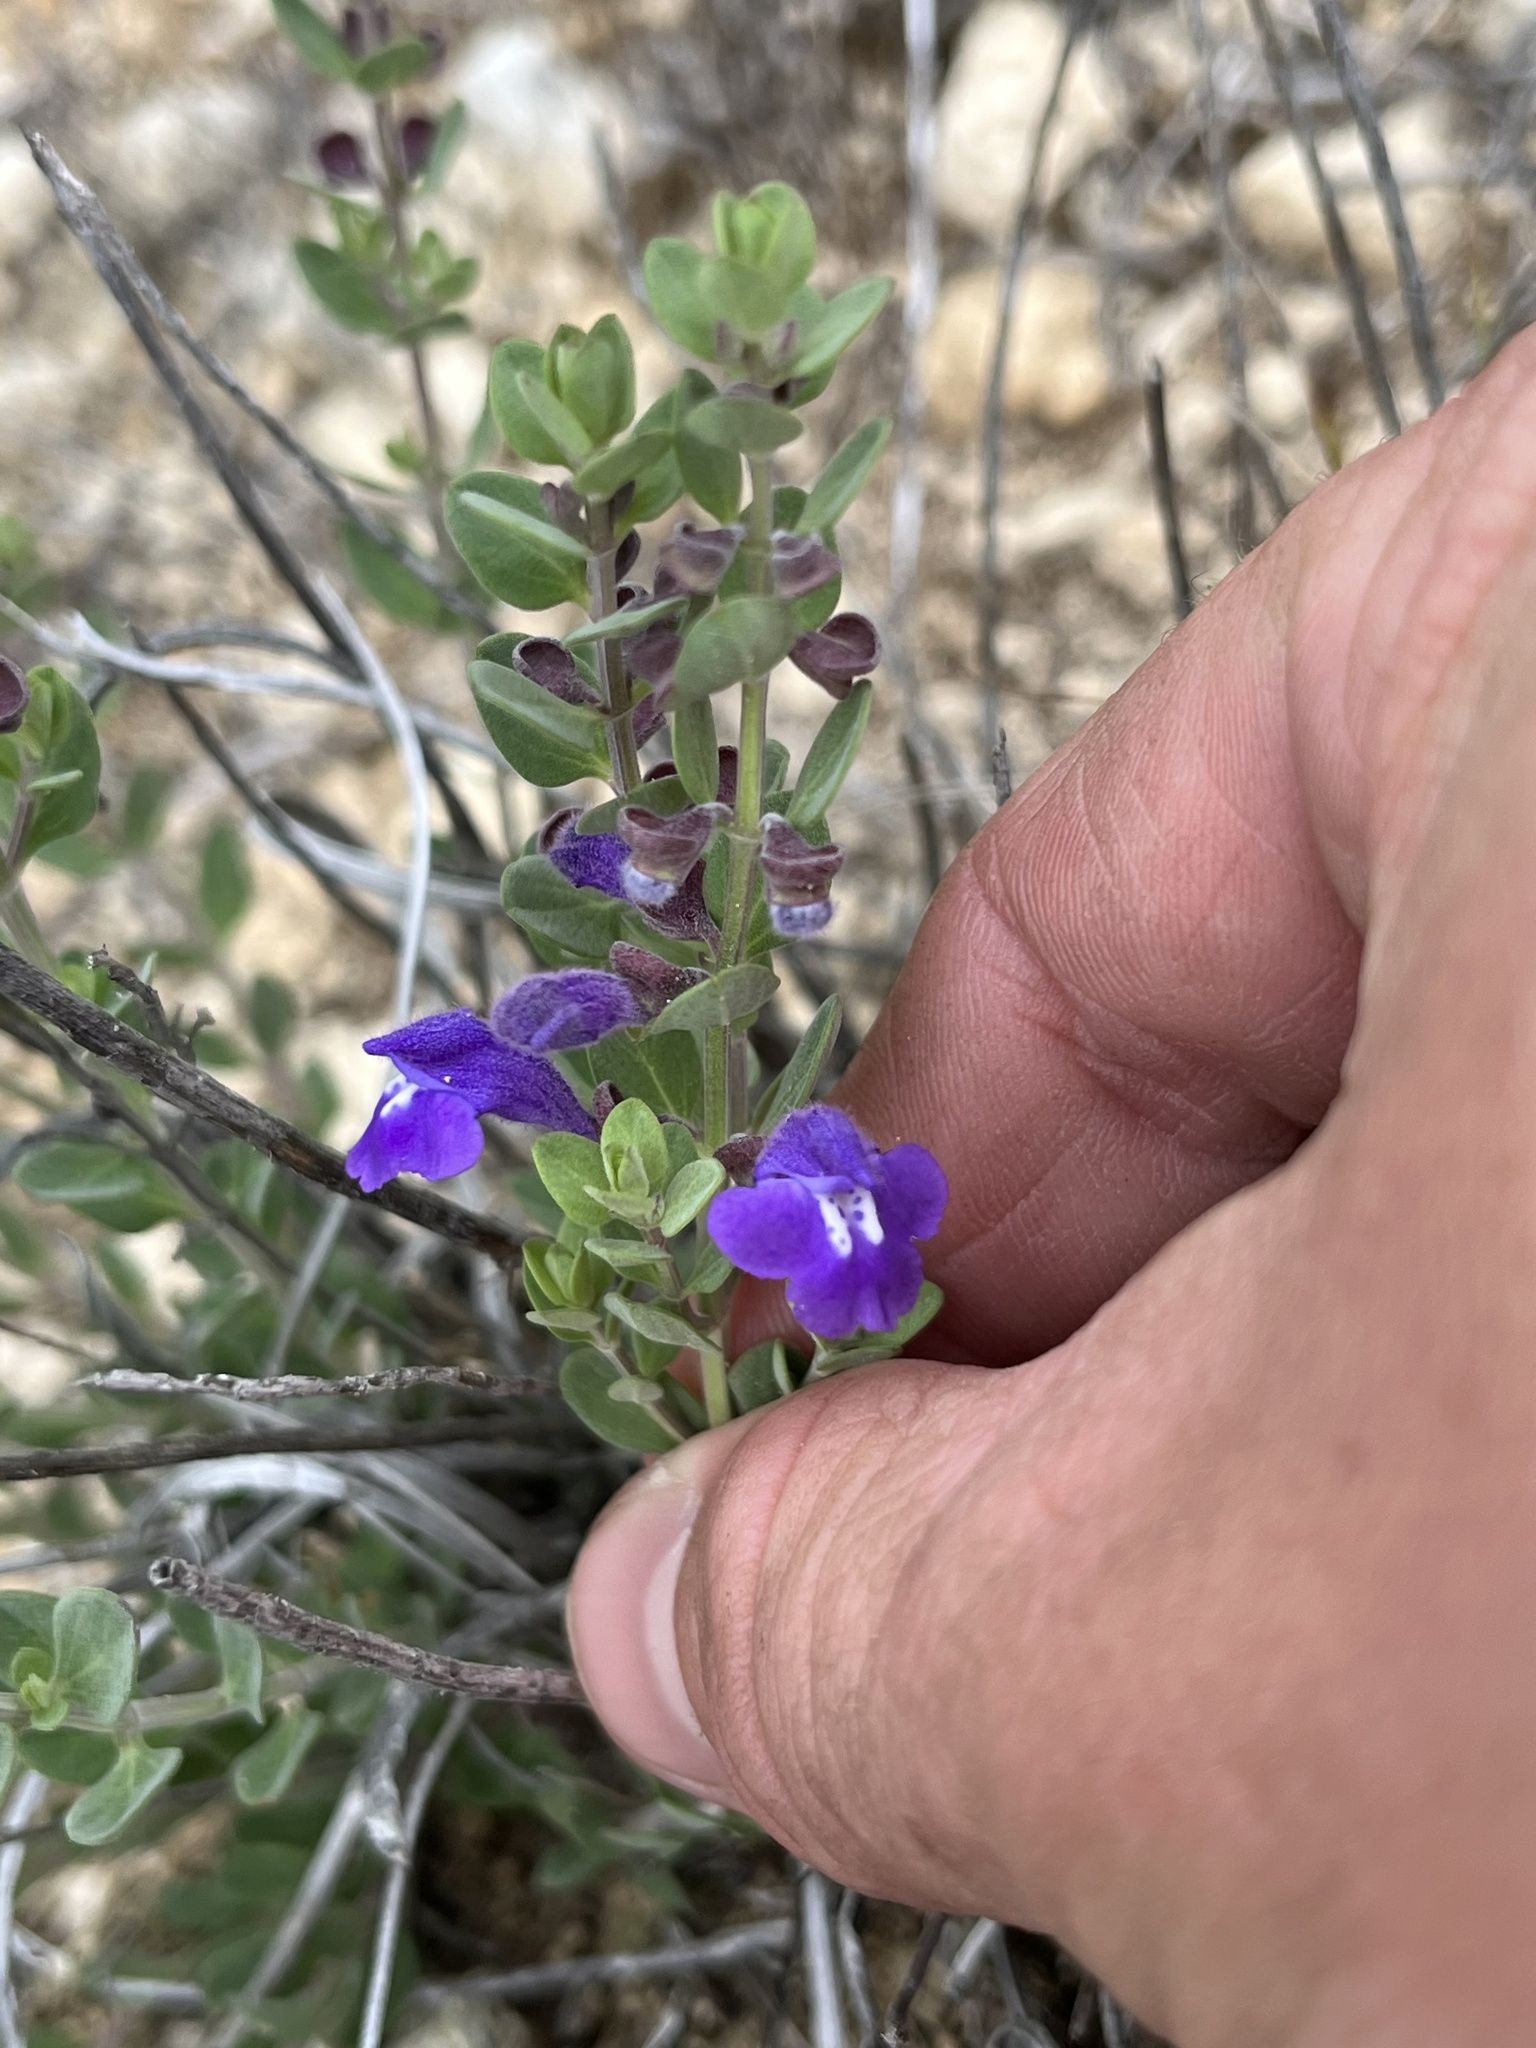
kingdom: Plantae
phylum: Tracheophyta
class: Magnoliopsida
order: Lamiales
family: Lamiaceae
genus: Scutellaria
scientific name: Scutellaria wrightii
